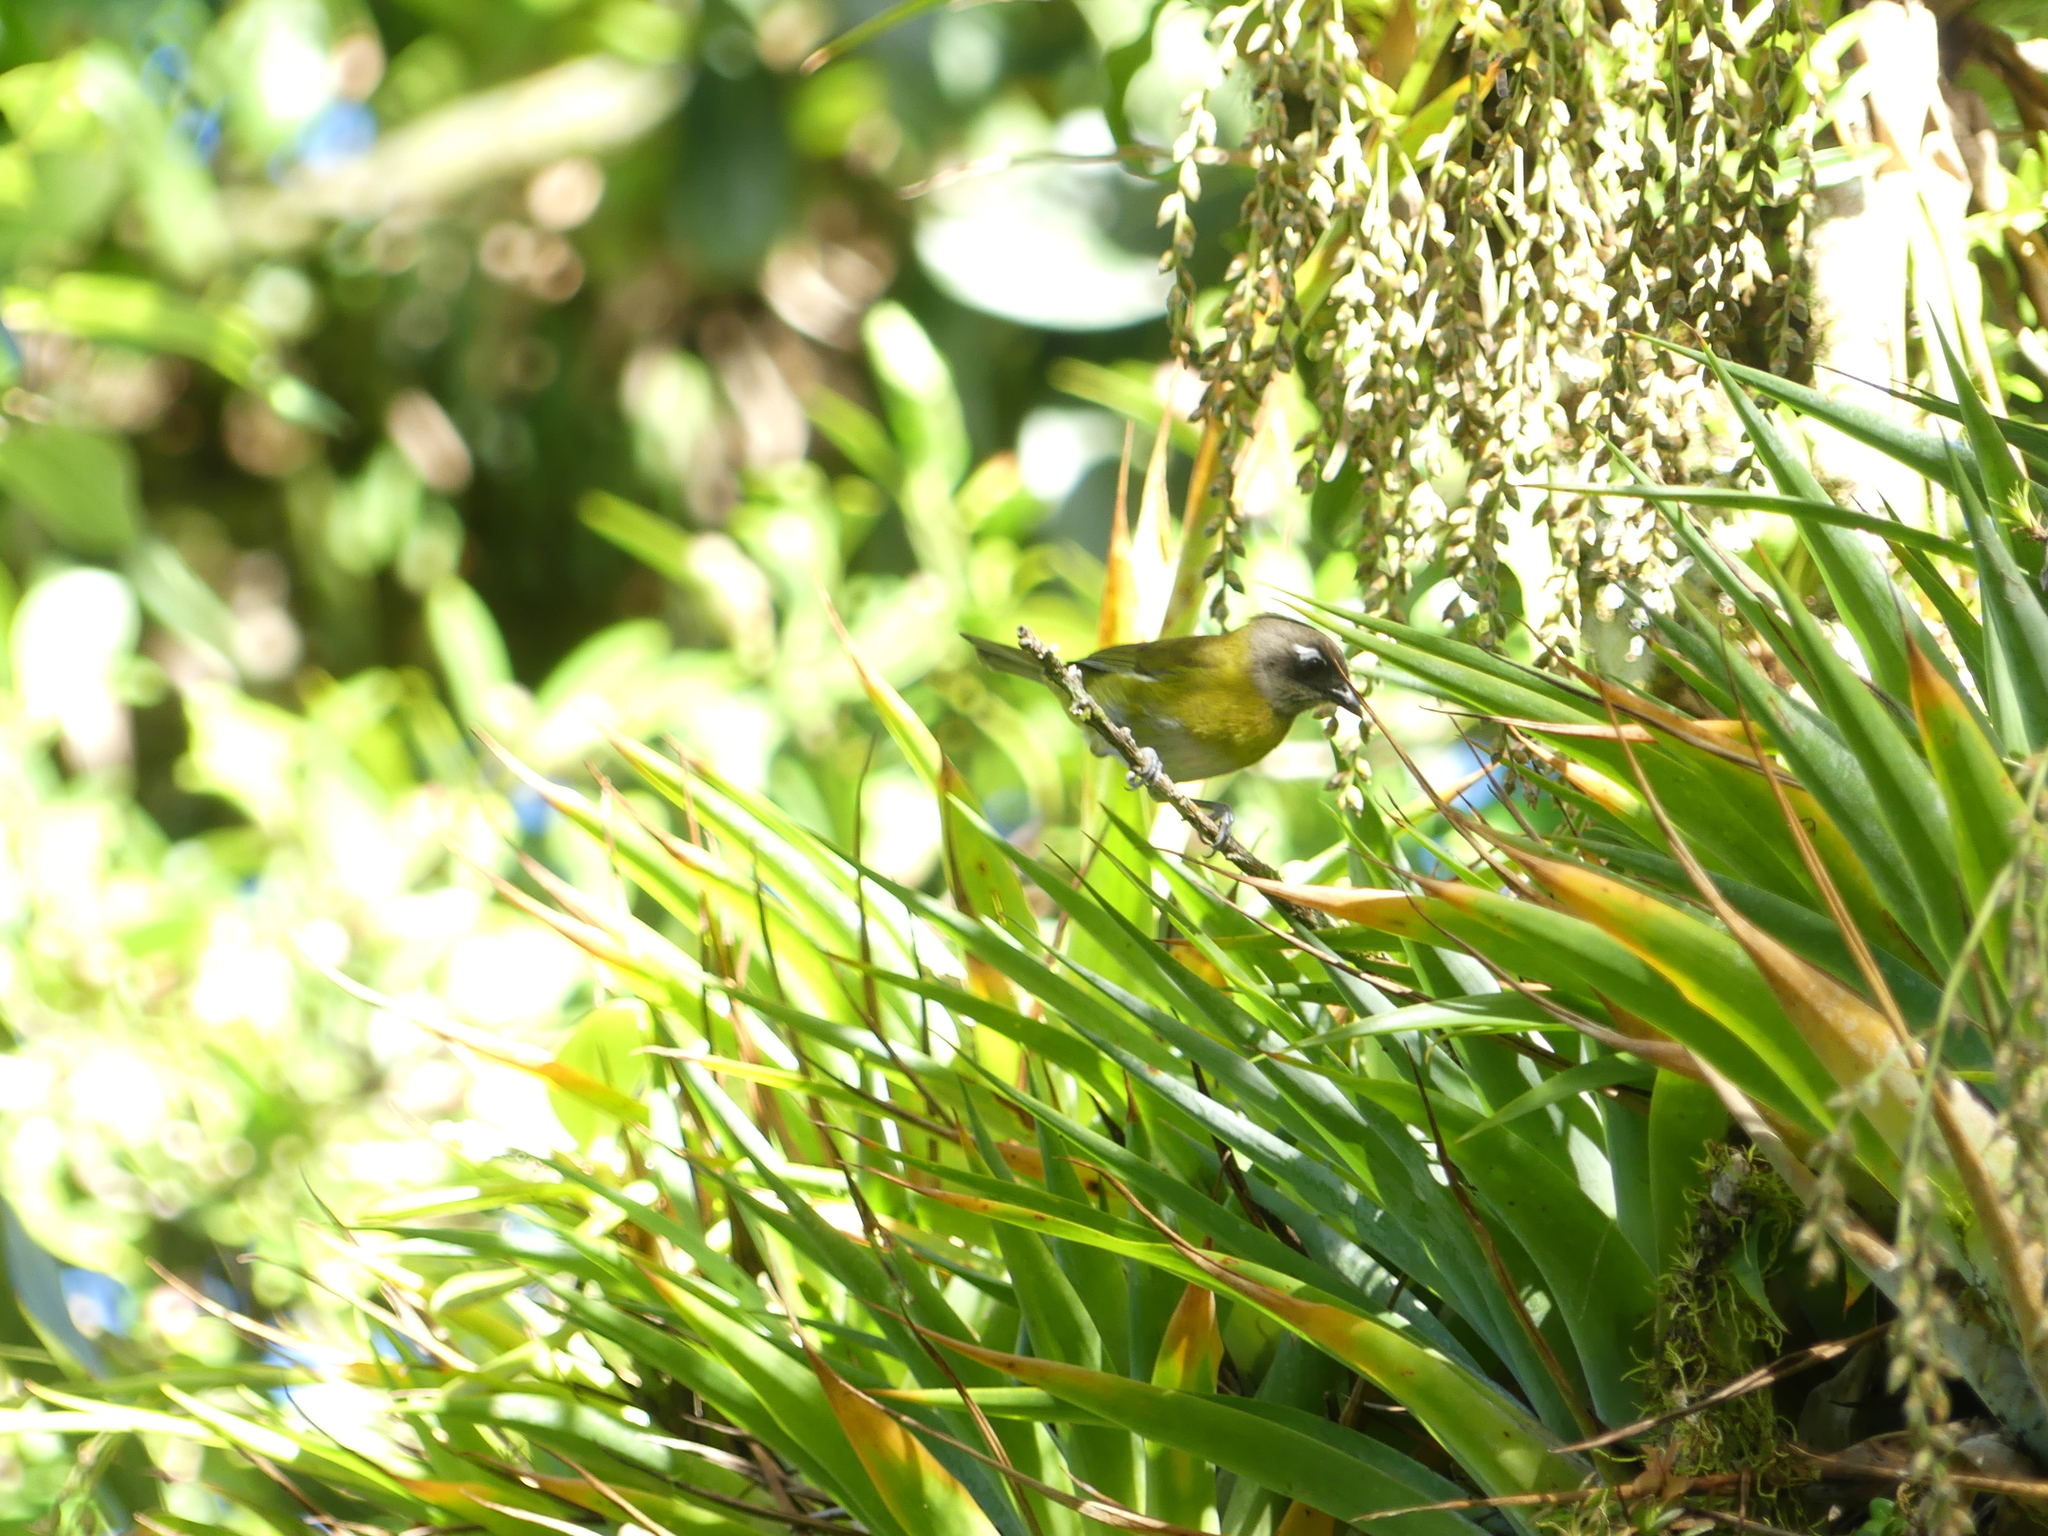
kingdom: Animalia
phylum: Chordata
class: Aves
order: Passeriformes
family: Passerellidae
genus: Chlorospingus
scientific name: Chlorospingus flavopectus
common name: Common chlorospingus
